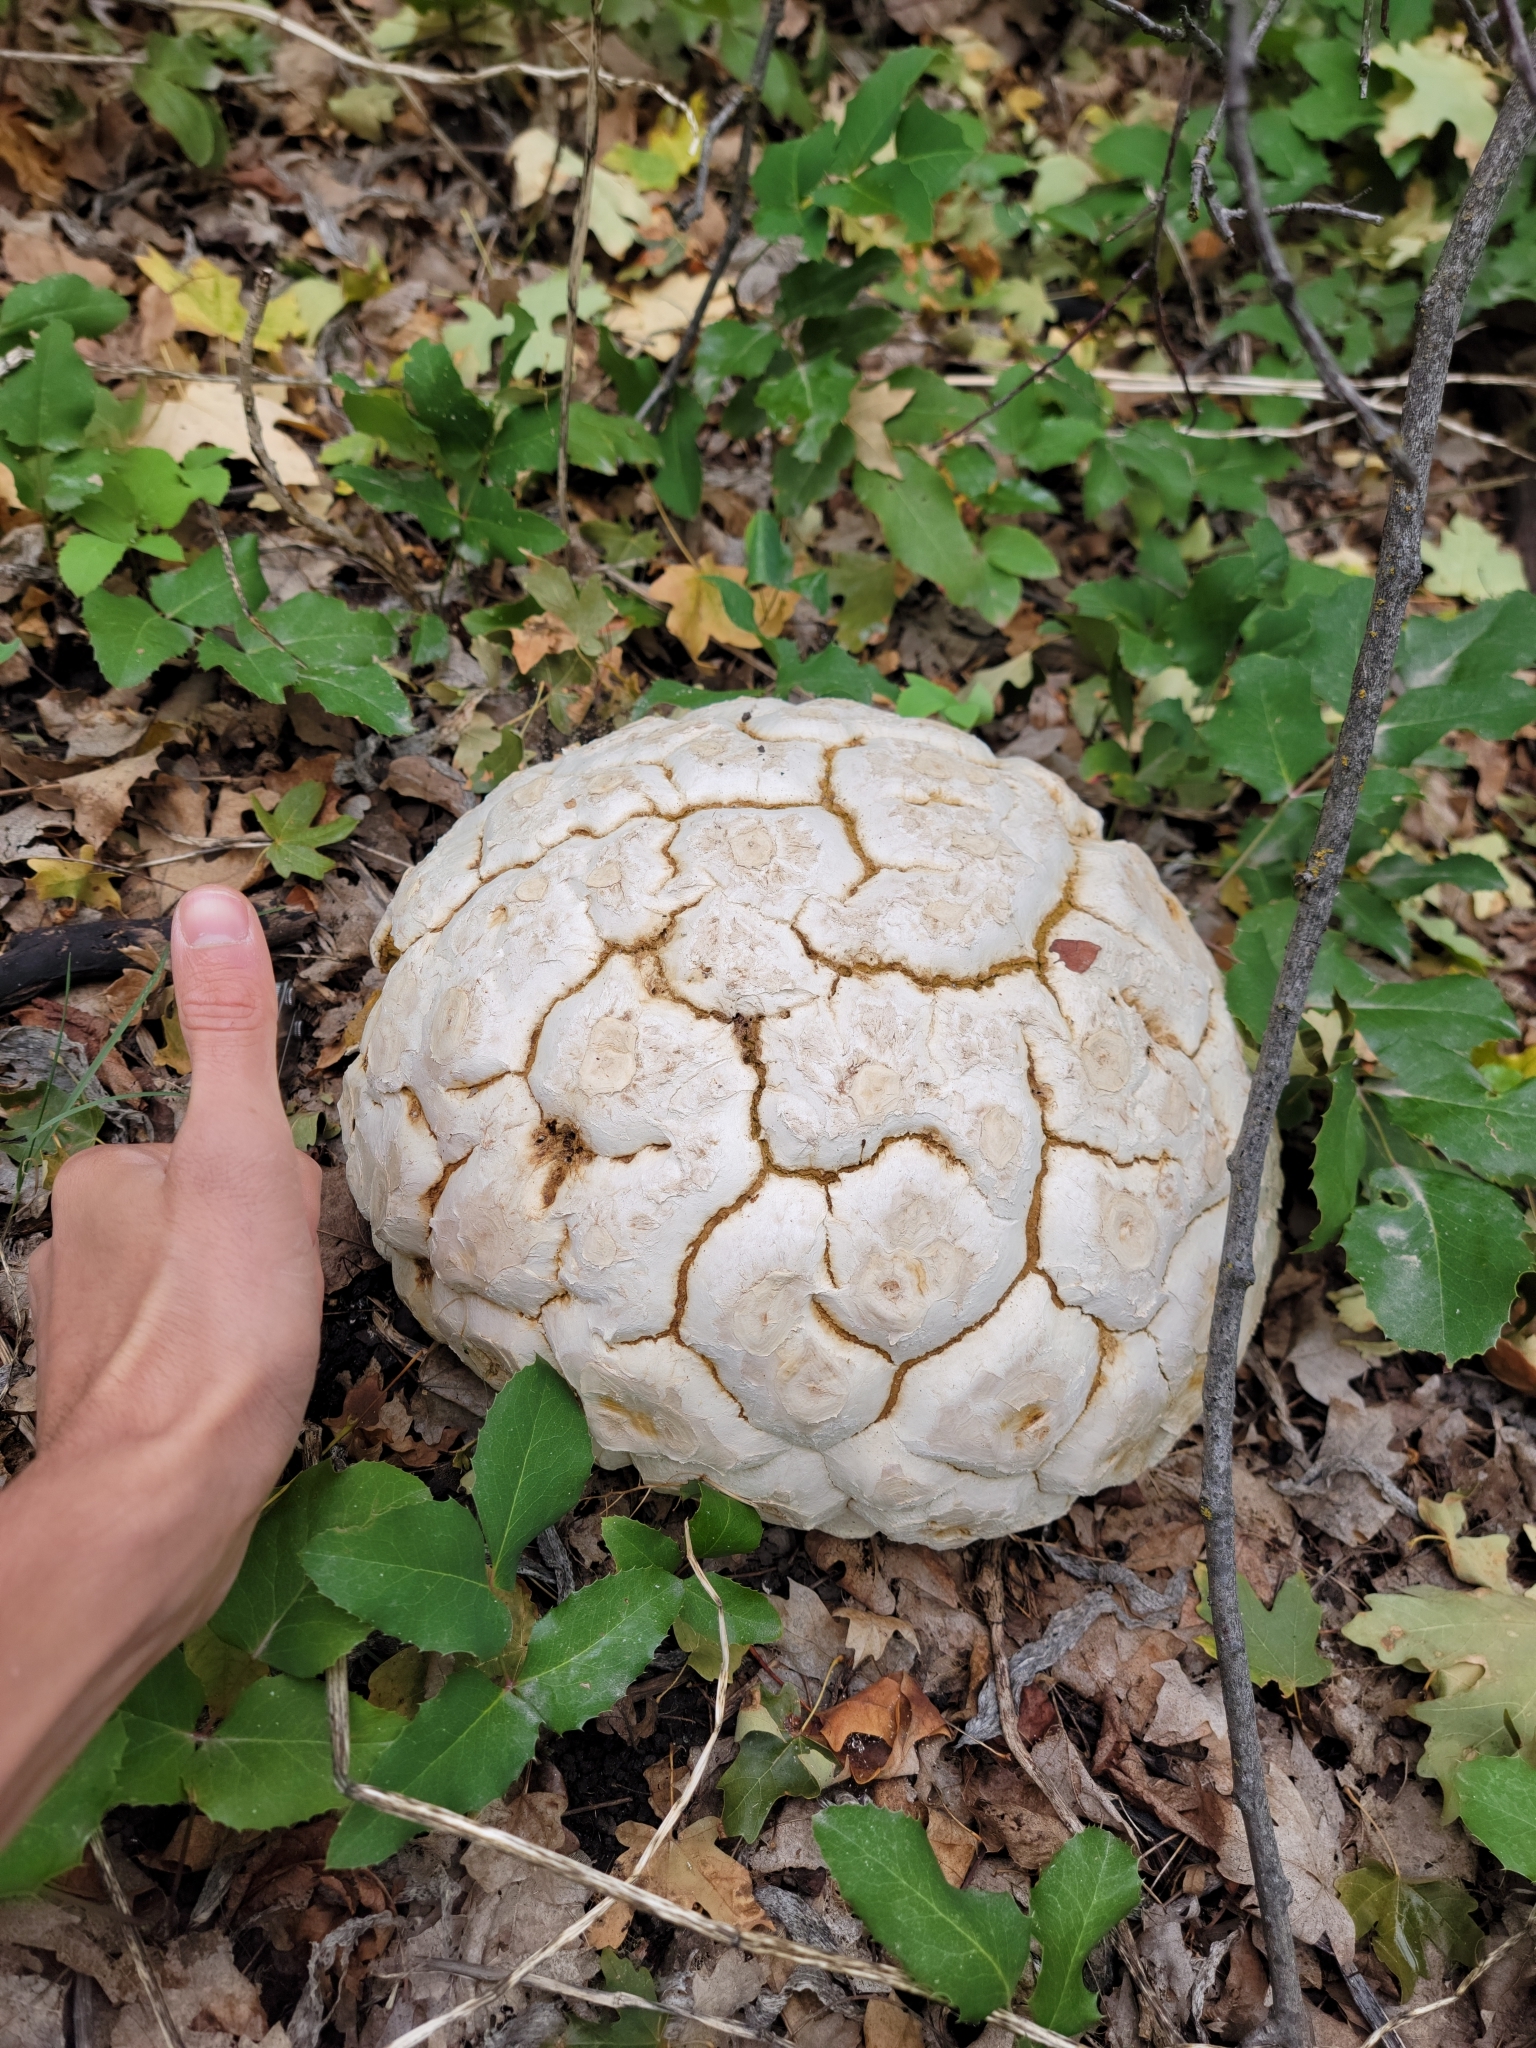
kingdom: Fungi
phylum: Basidiomycota
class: Agaricomycetes
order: Agaricales
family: Lycoperdaceae
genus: Calvatia
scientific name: Calvatia booniana
